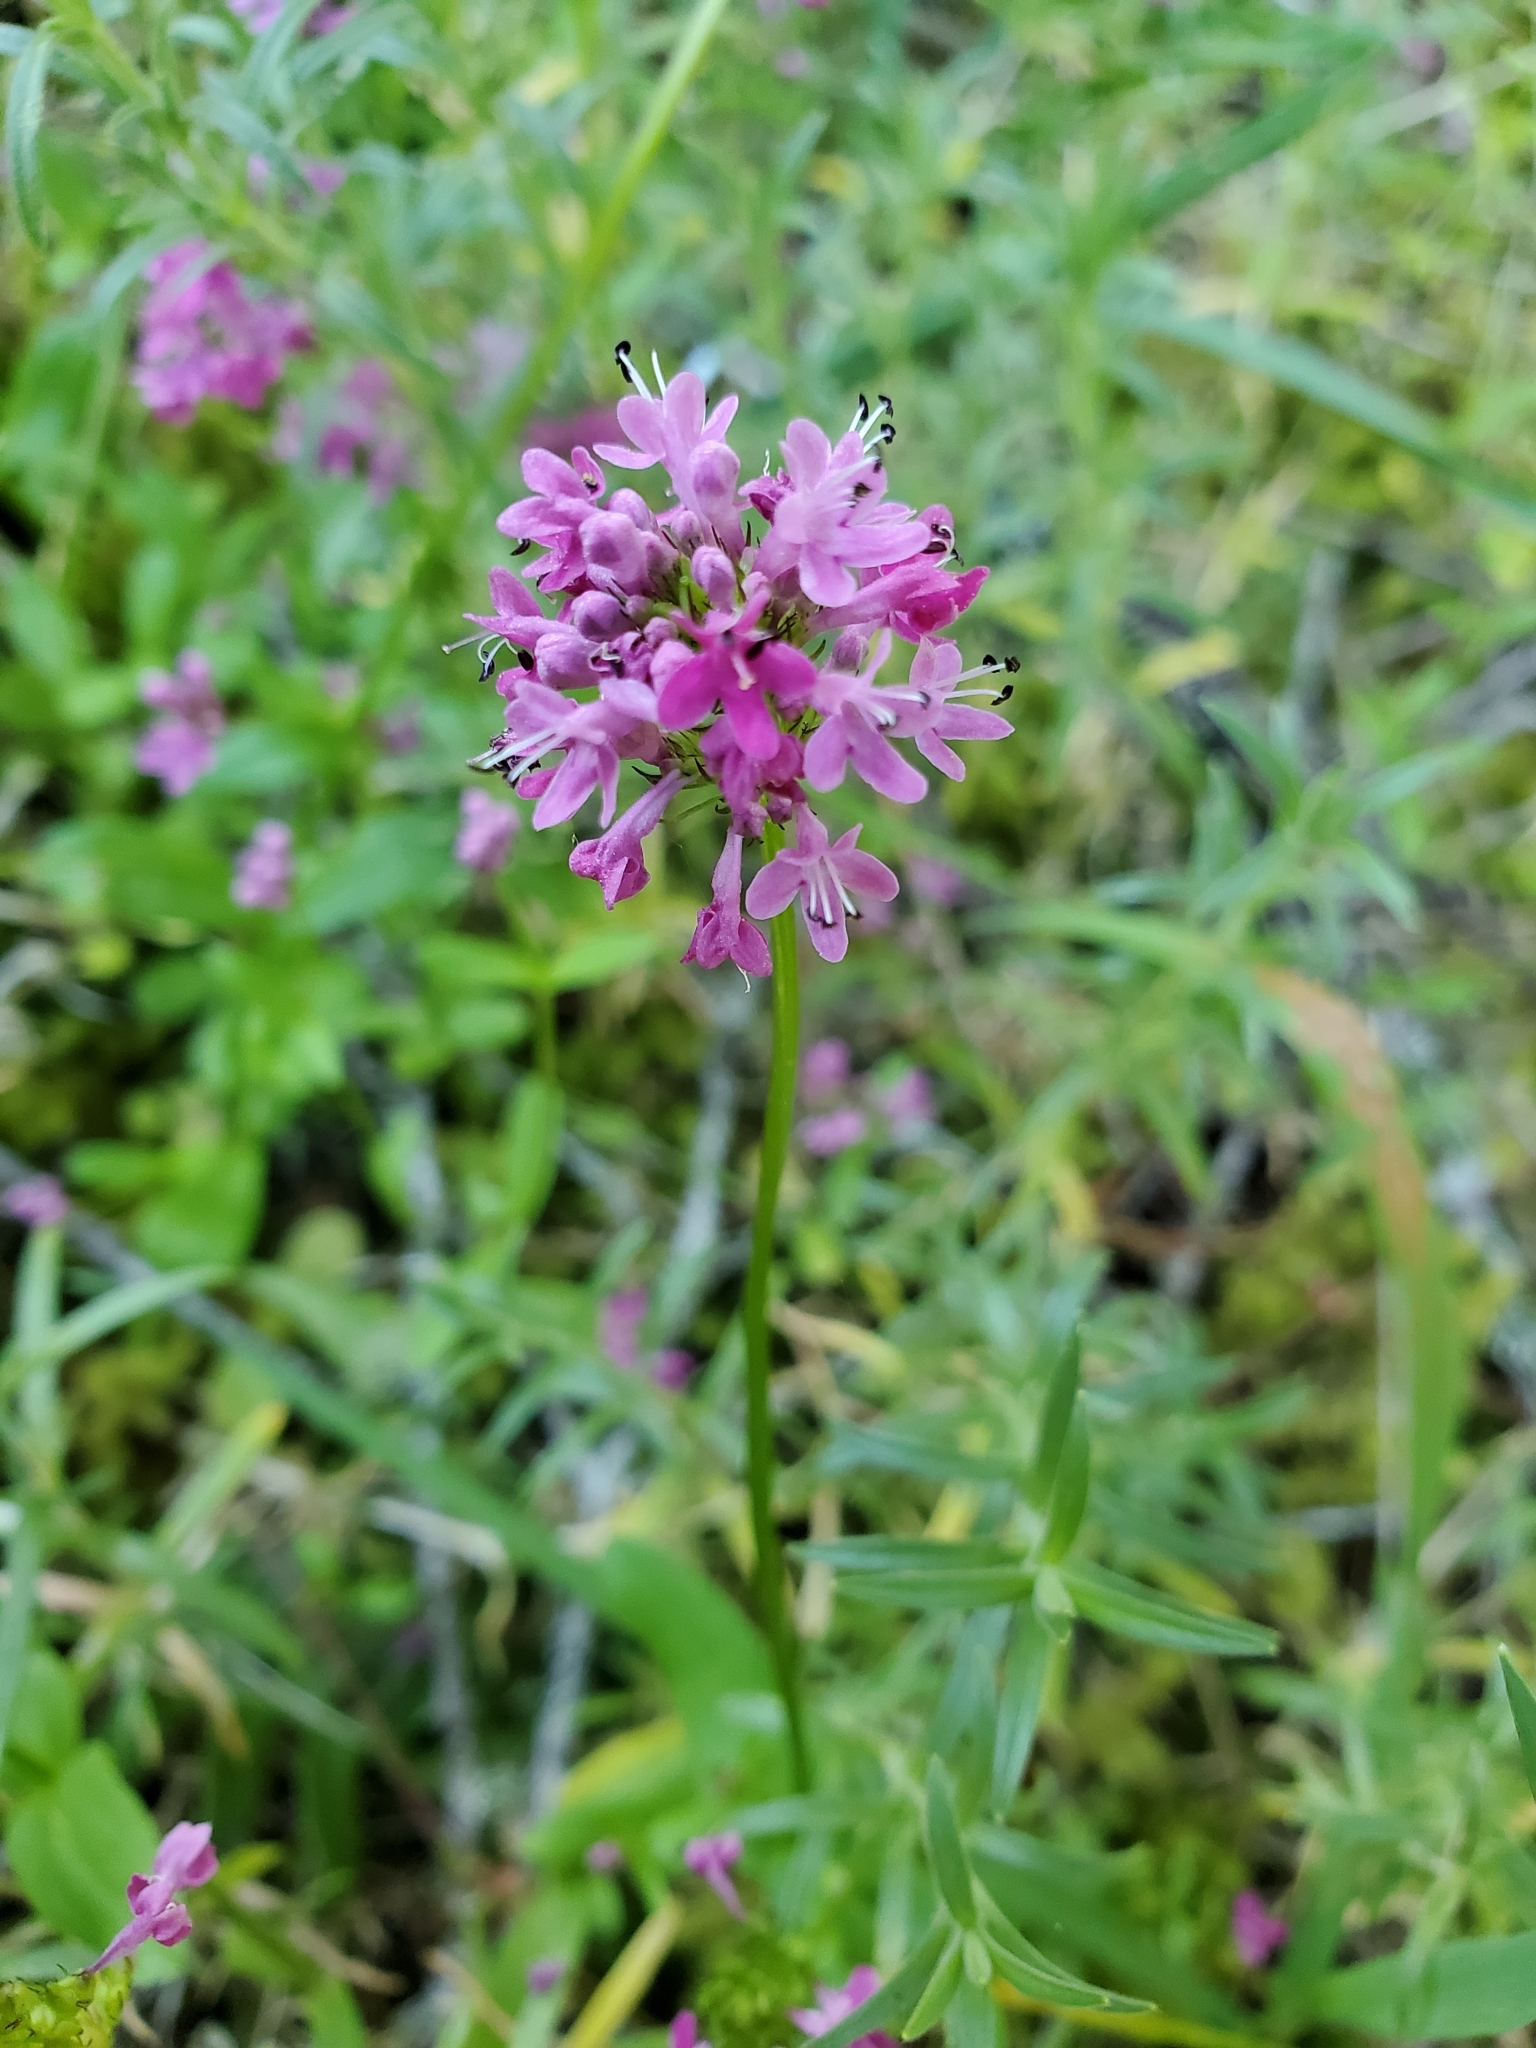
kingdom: Plantae
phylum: Tracheophyta
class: Magnoliopsida
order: Dipsacales
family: Caprifoliaceae
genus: Plectritis
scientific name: Plectritis congesta
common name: Pink plectritis
